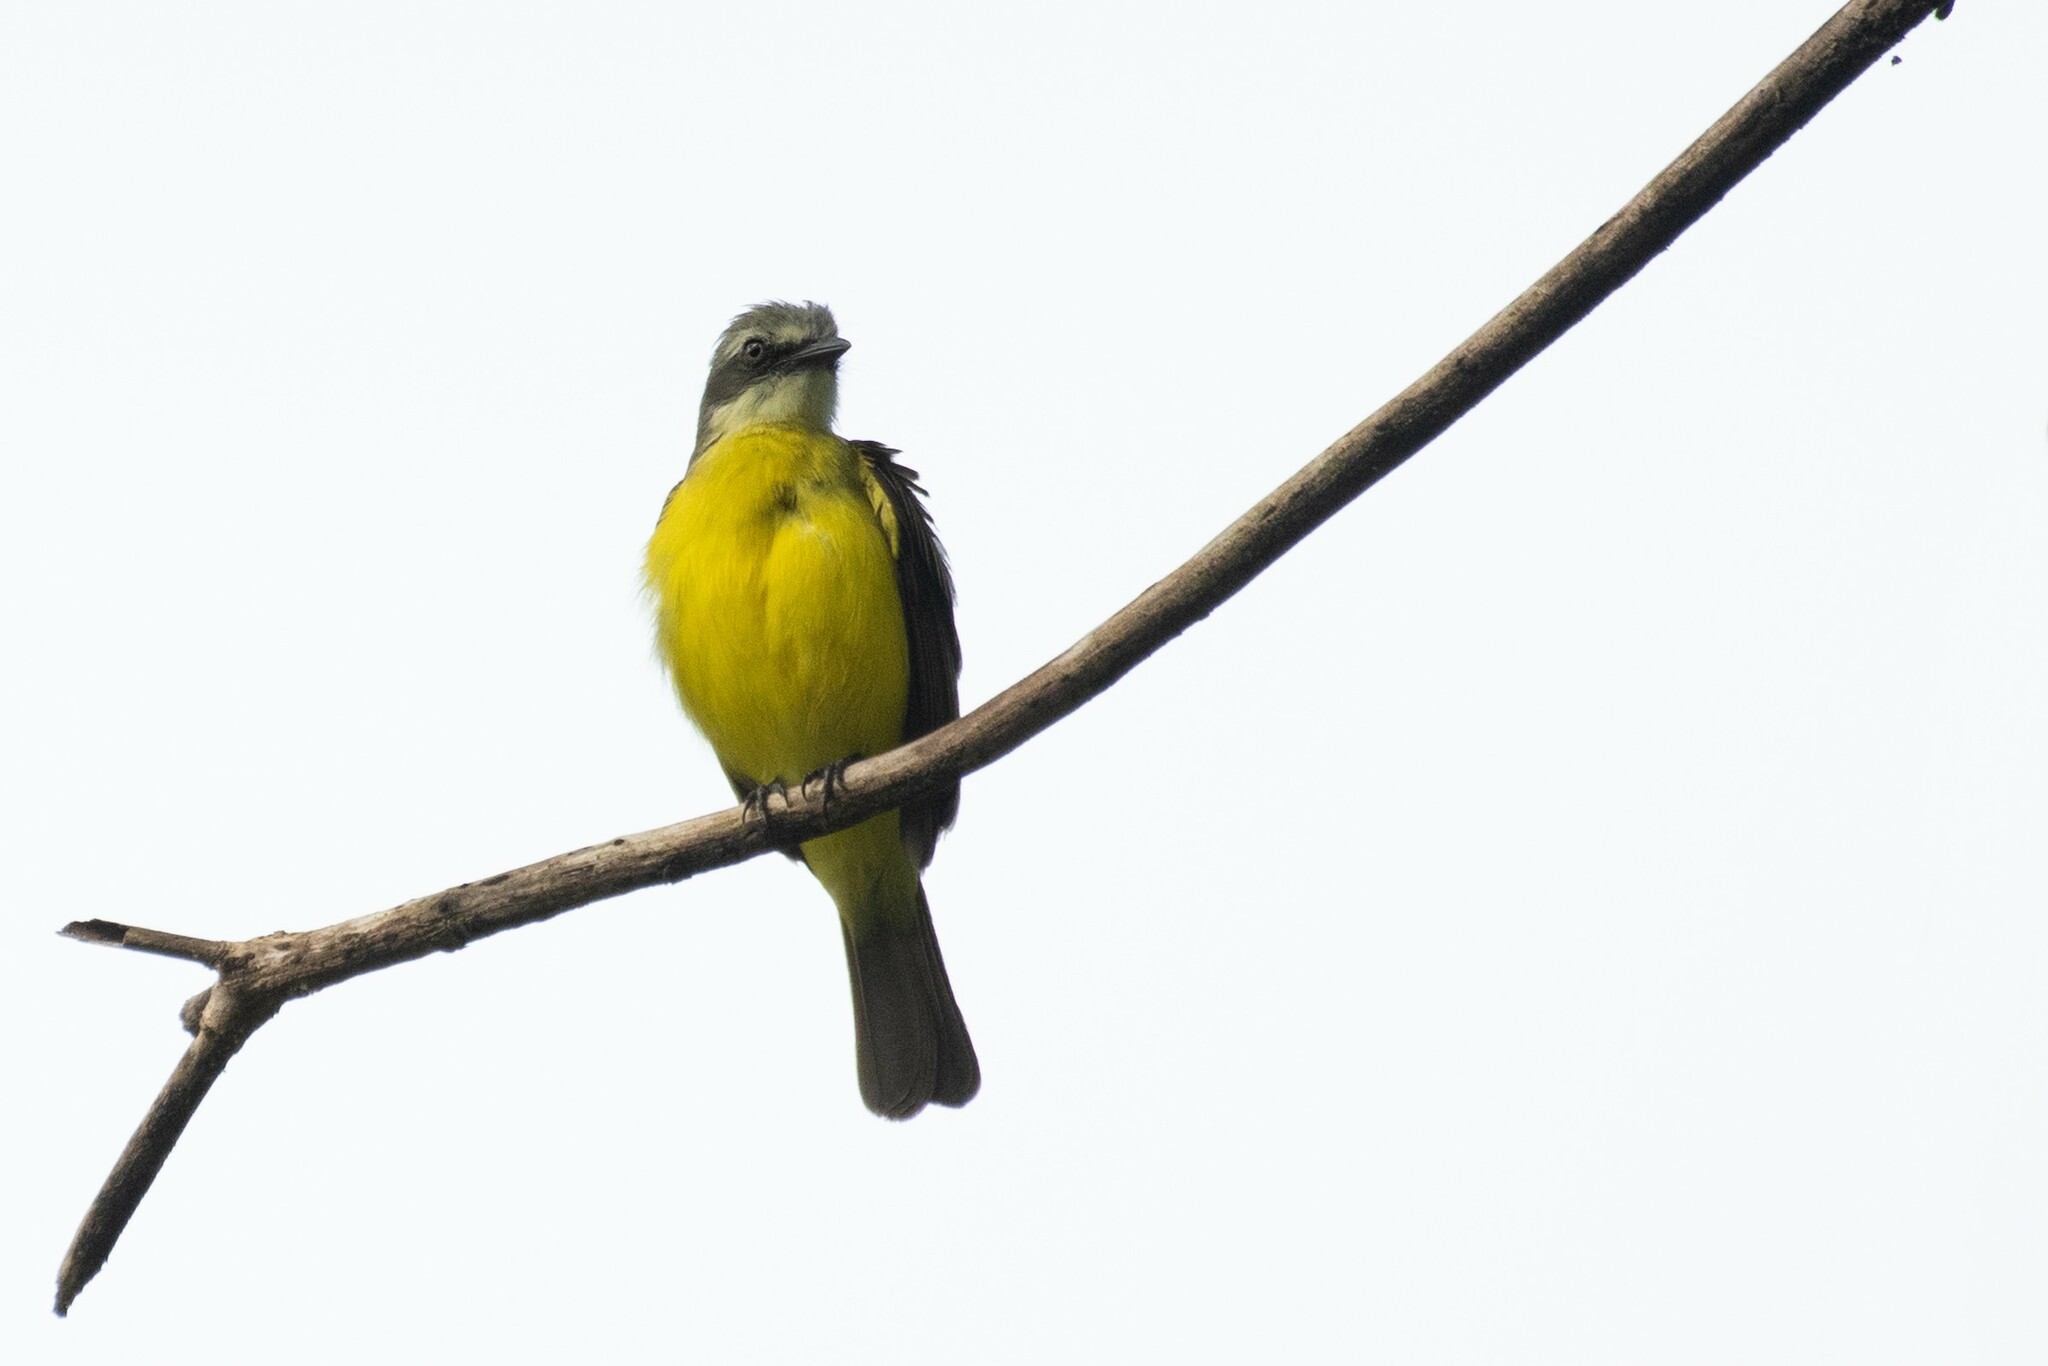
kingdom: Animalia
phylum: Chordata
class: Aves
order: Passeriformes
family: Tyrannidae
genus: Myiozetetes
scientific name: Myiozetetes granadensis
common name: Gray-capped flycatcher
